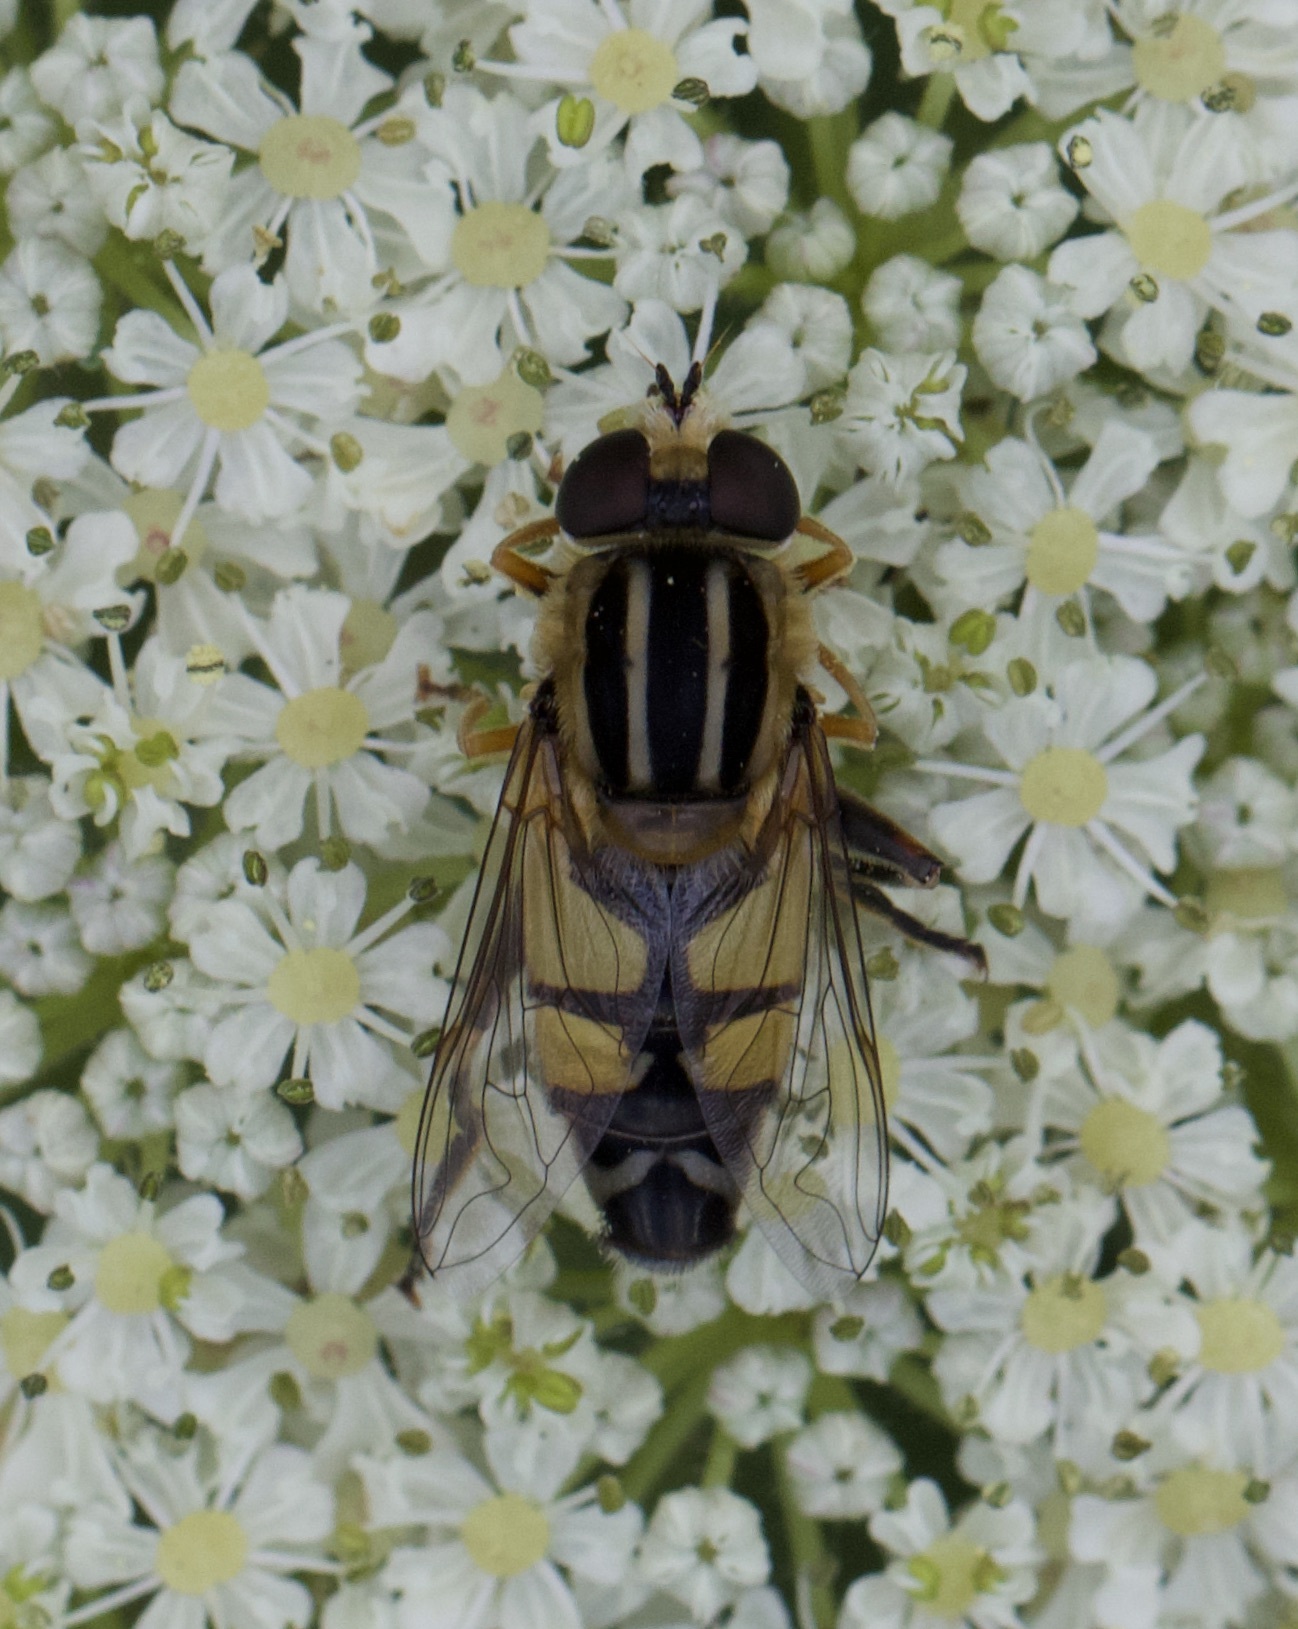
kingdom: Animalia
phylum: Arthropoda
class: Insecta
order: Diptera
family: Syrphidae
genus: Helophilus
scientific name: Helophilus trivittatus
